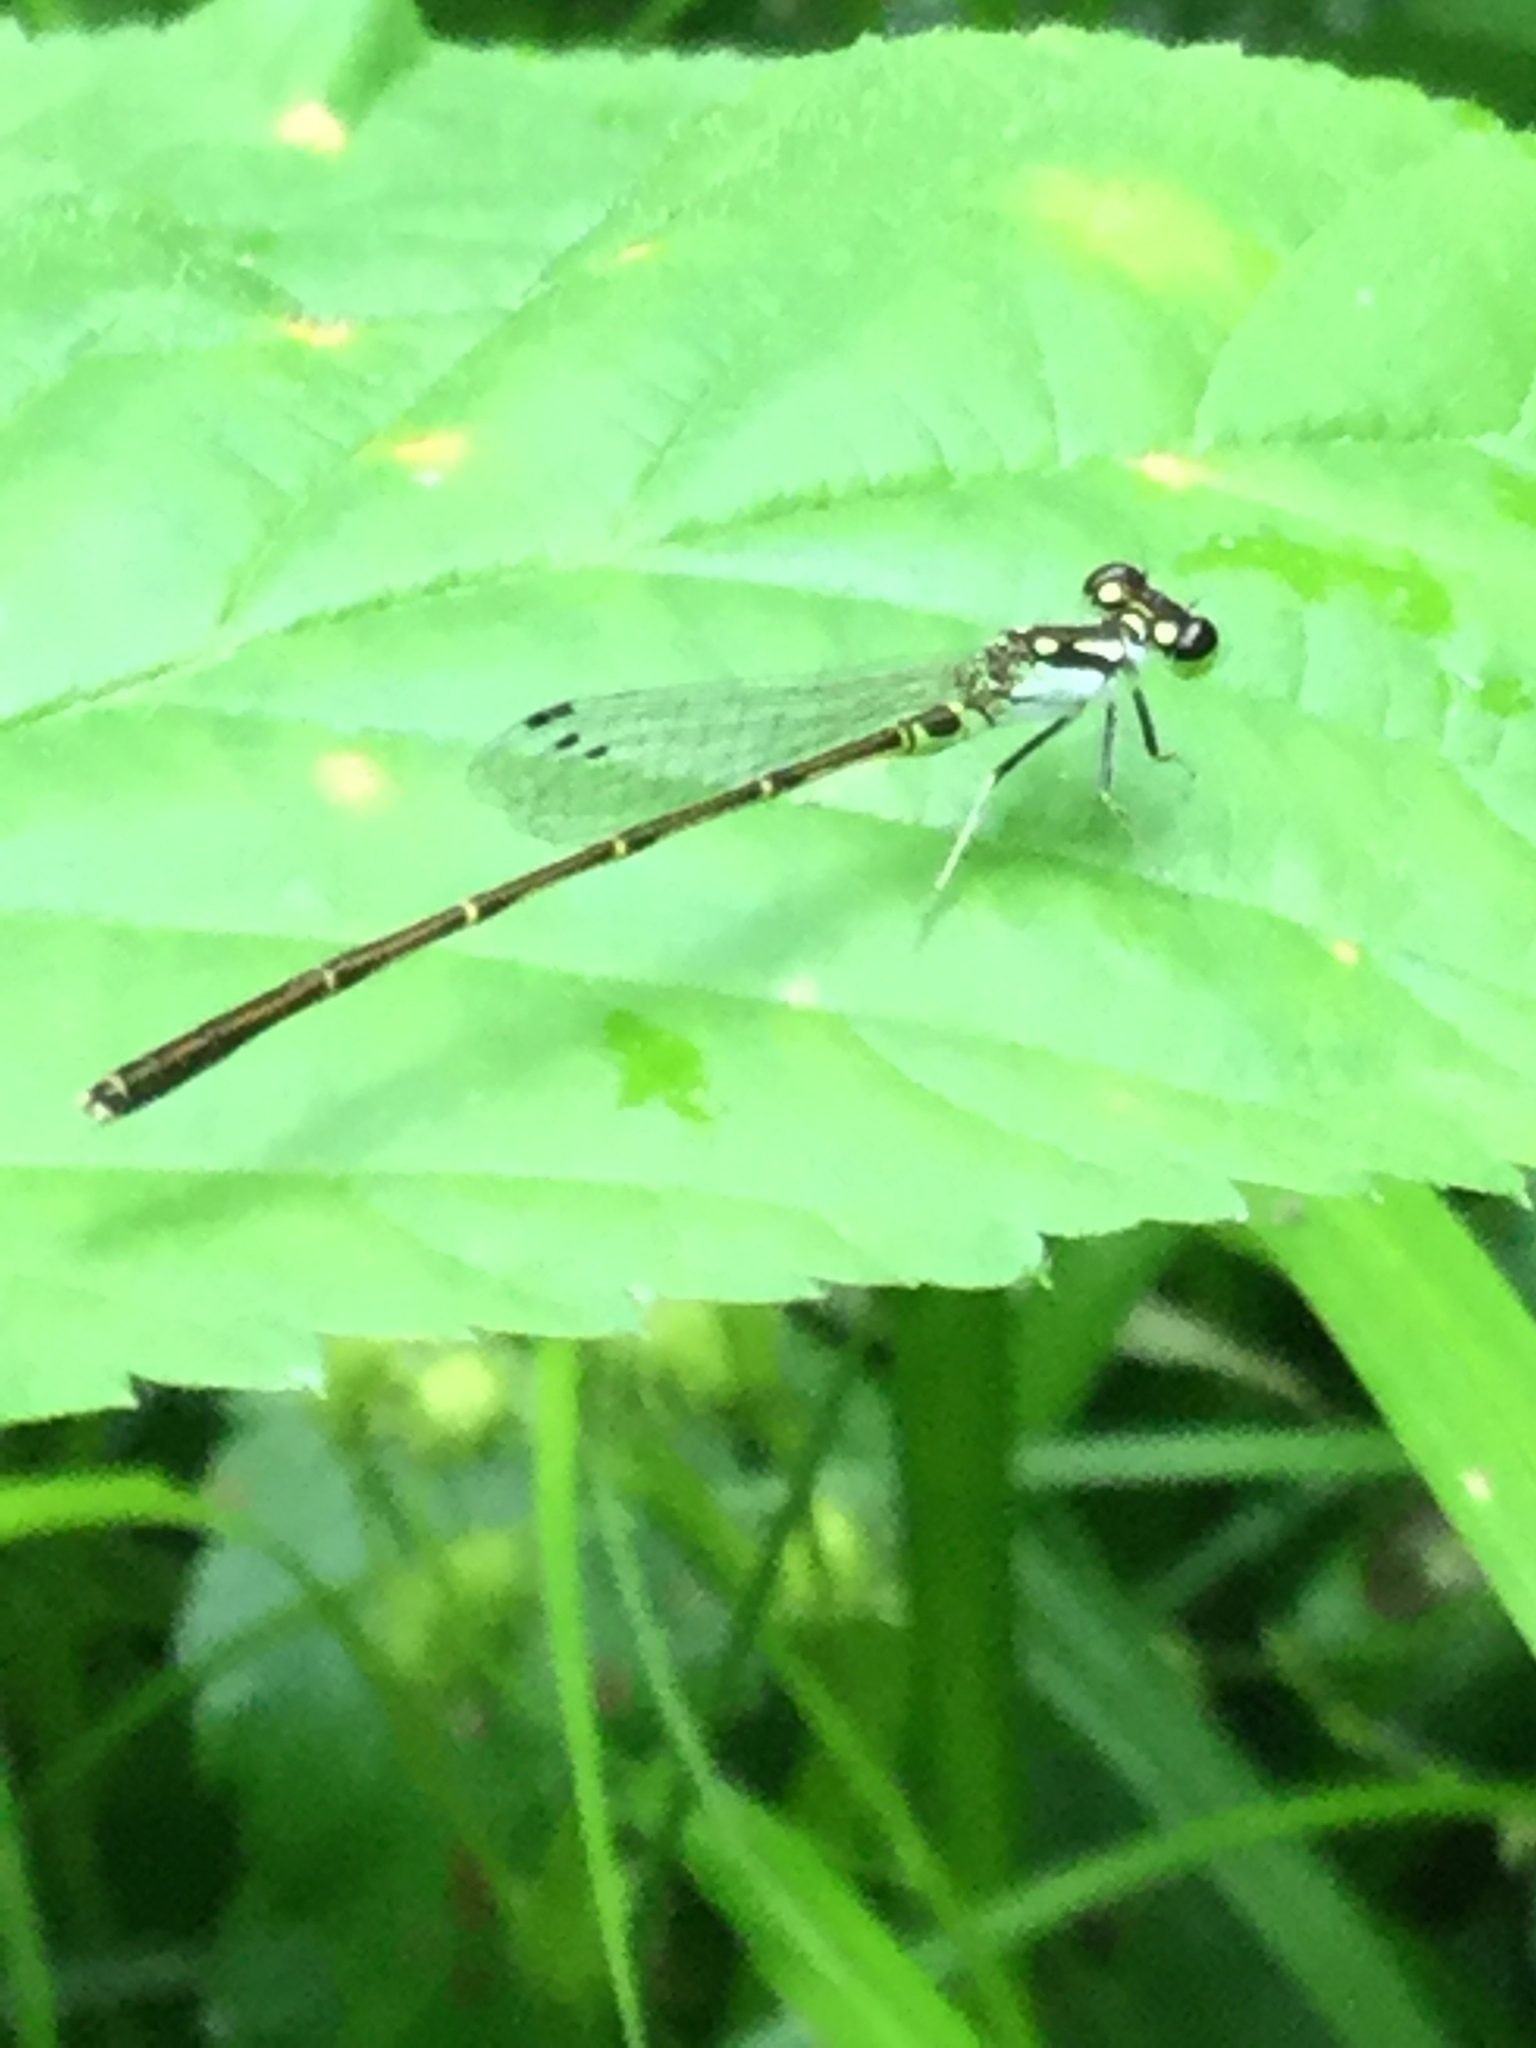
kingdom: Animalia
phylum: Arthropoda
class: Insecta
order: Odonata
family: Coenagrionidae
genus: Ischnura
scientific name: Ischnura posita
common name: Fragile forktail
